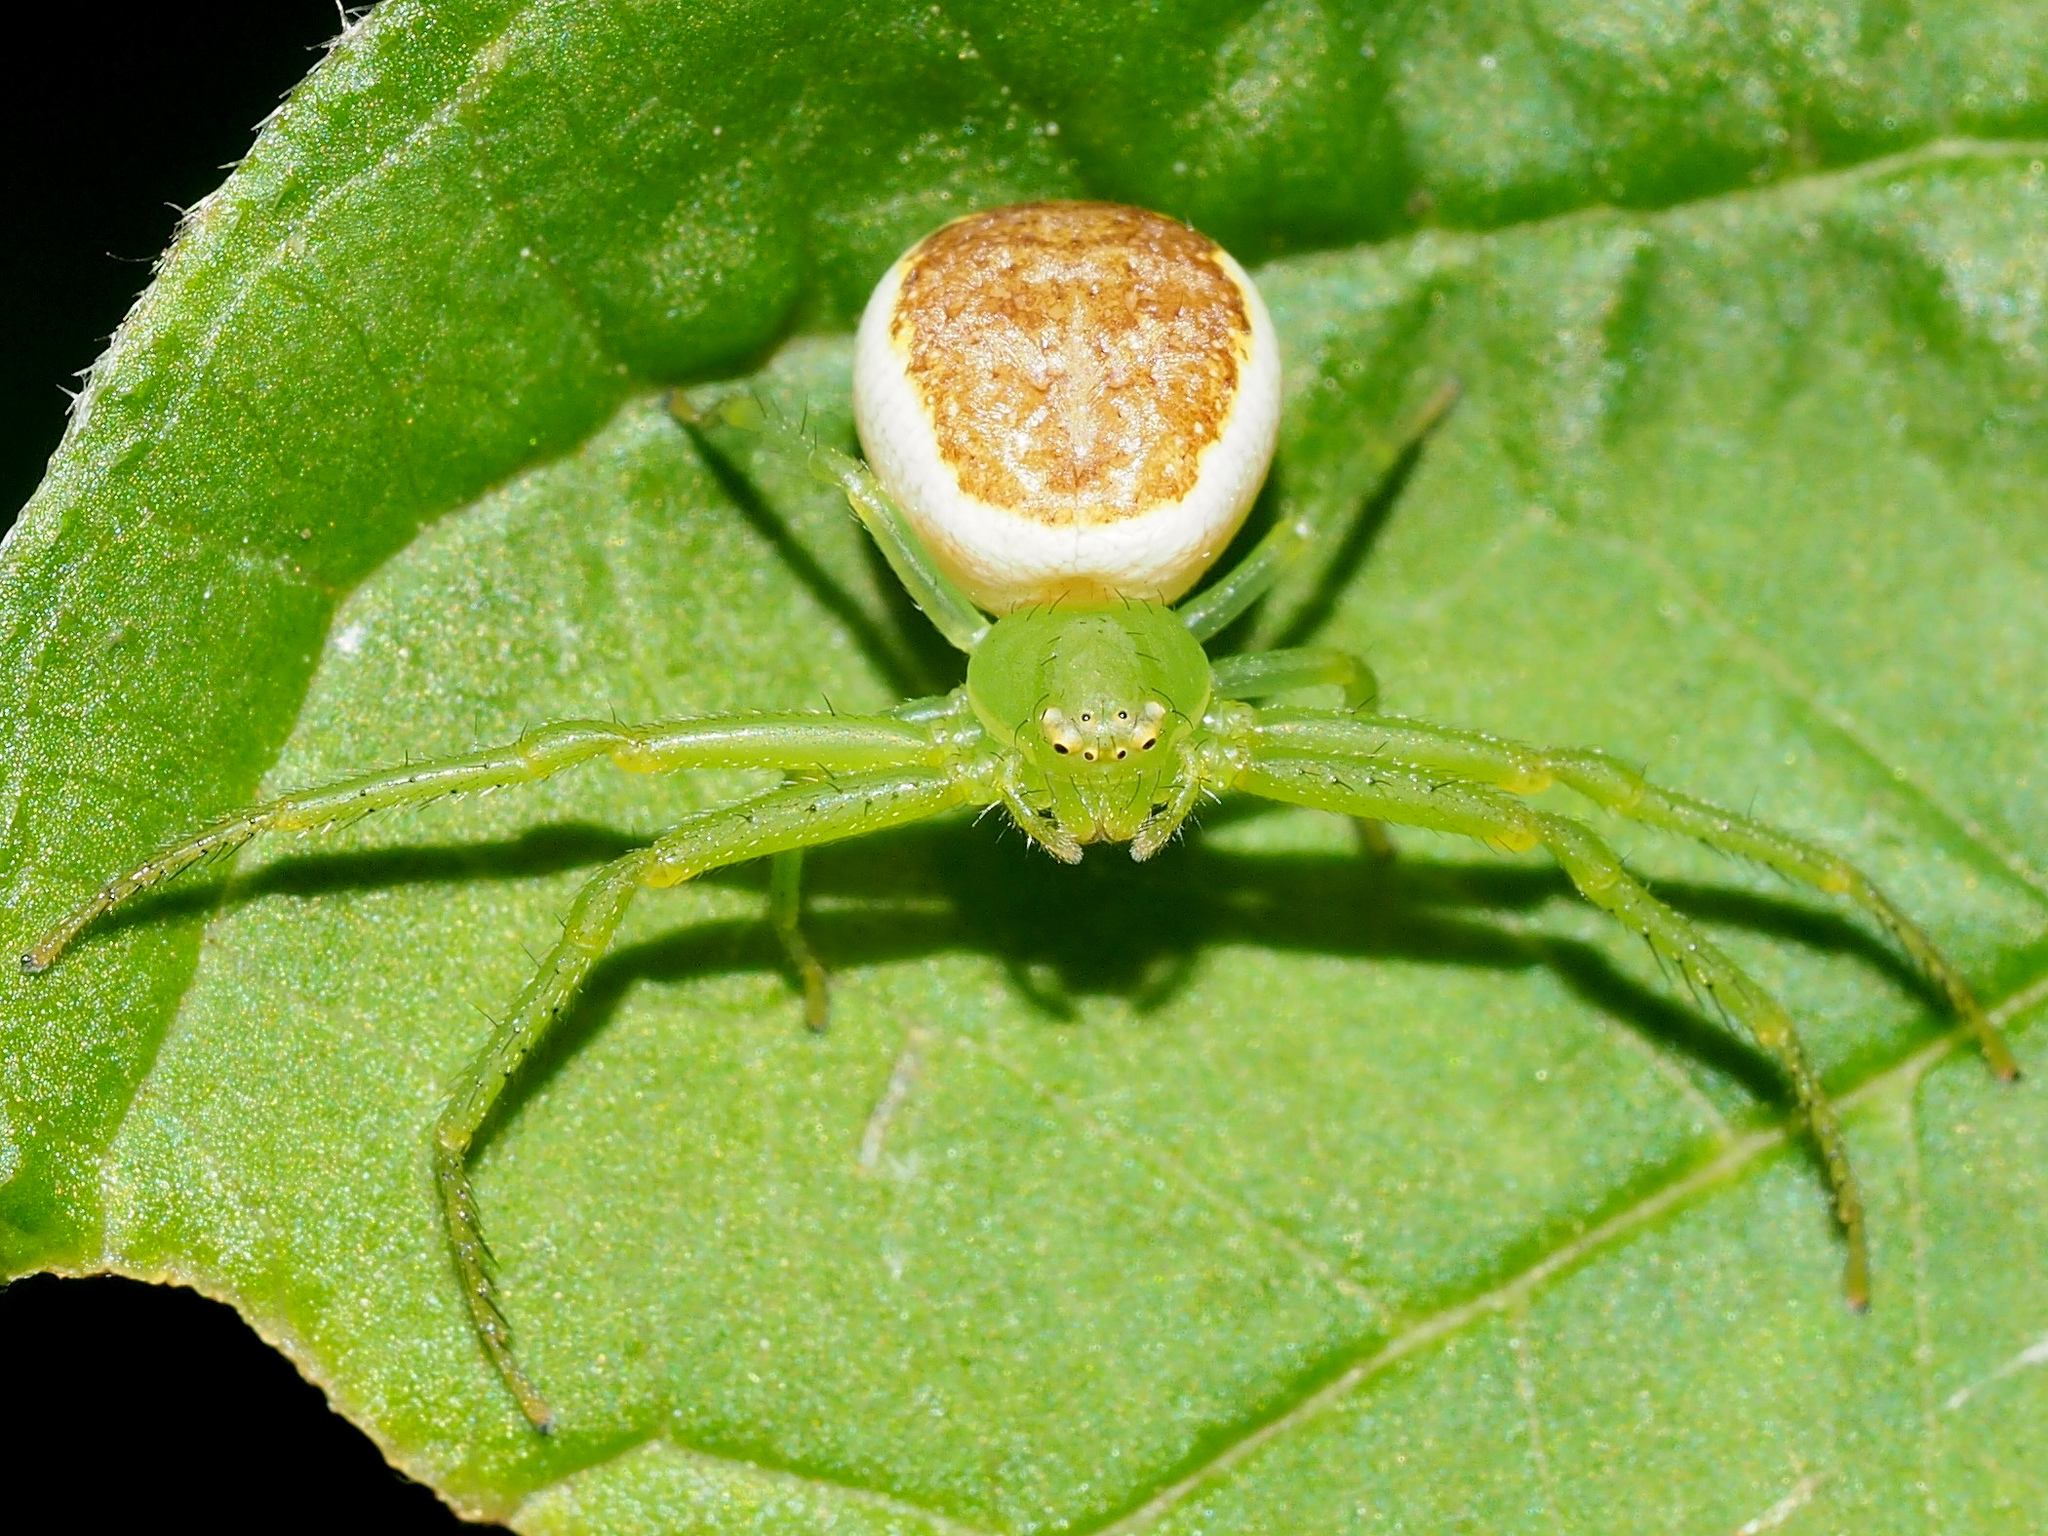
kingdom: Animalia
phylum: Arthropoda
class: Arachnida
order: Araneae
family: Thomisidae
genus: Diaea
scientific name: Diaea dorsata
